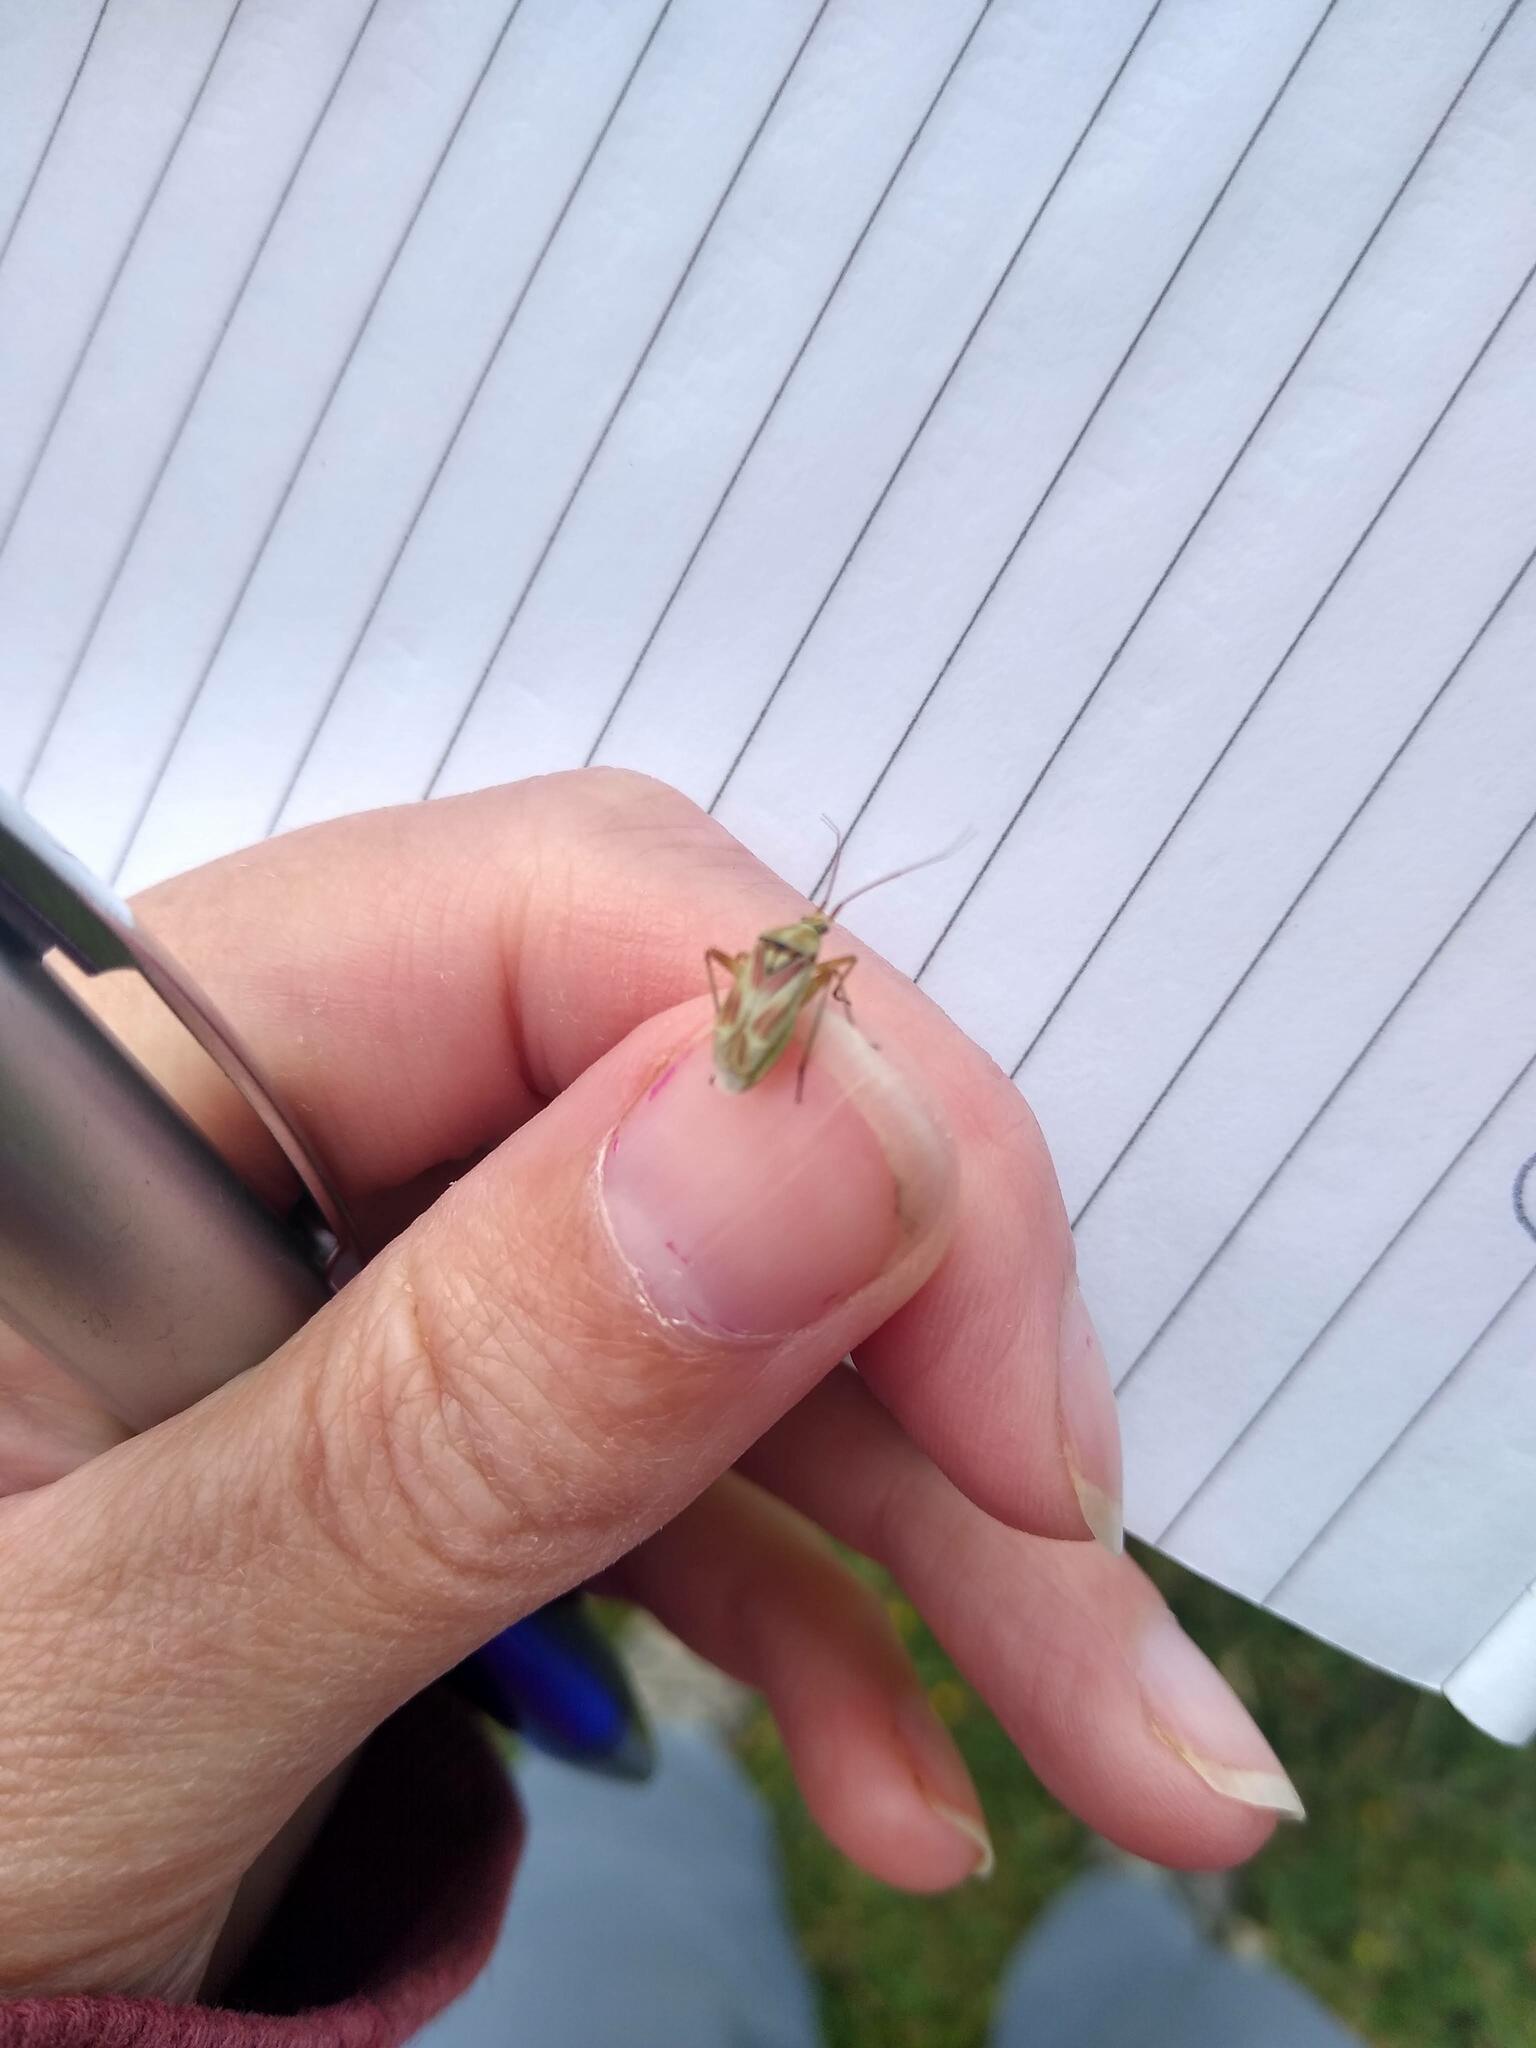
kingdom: Animalia
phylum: Arthropoda
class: Insecta
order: Hemiptera
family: Miridae
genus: Calocoris
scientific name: Calocoris roseomaculatus
